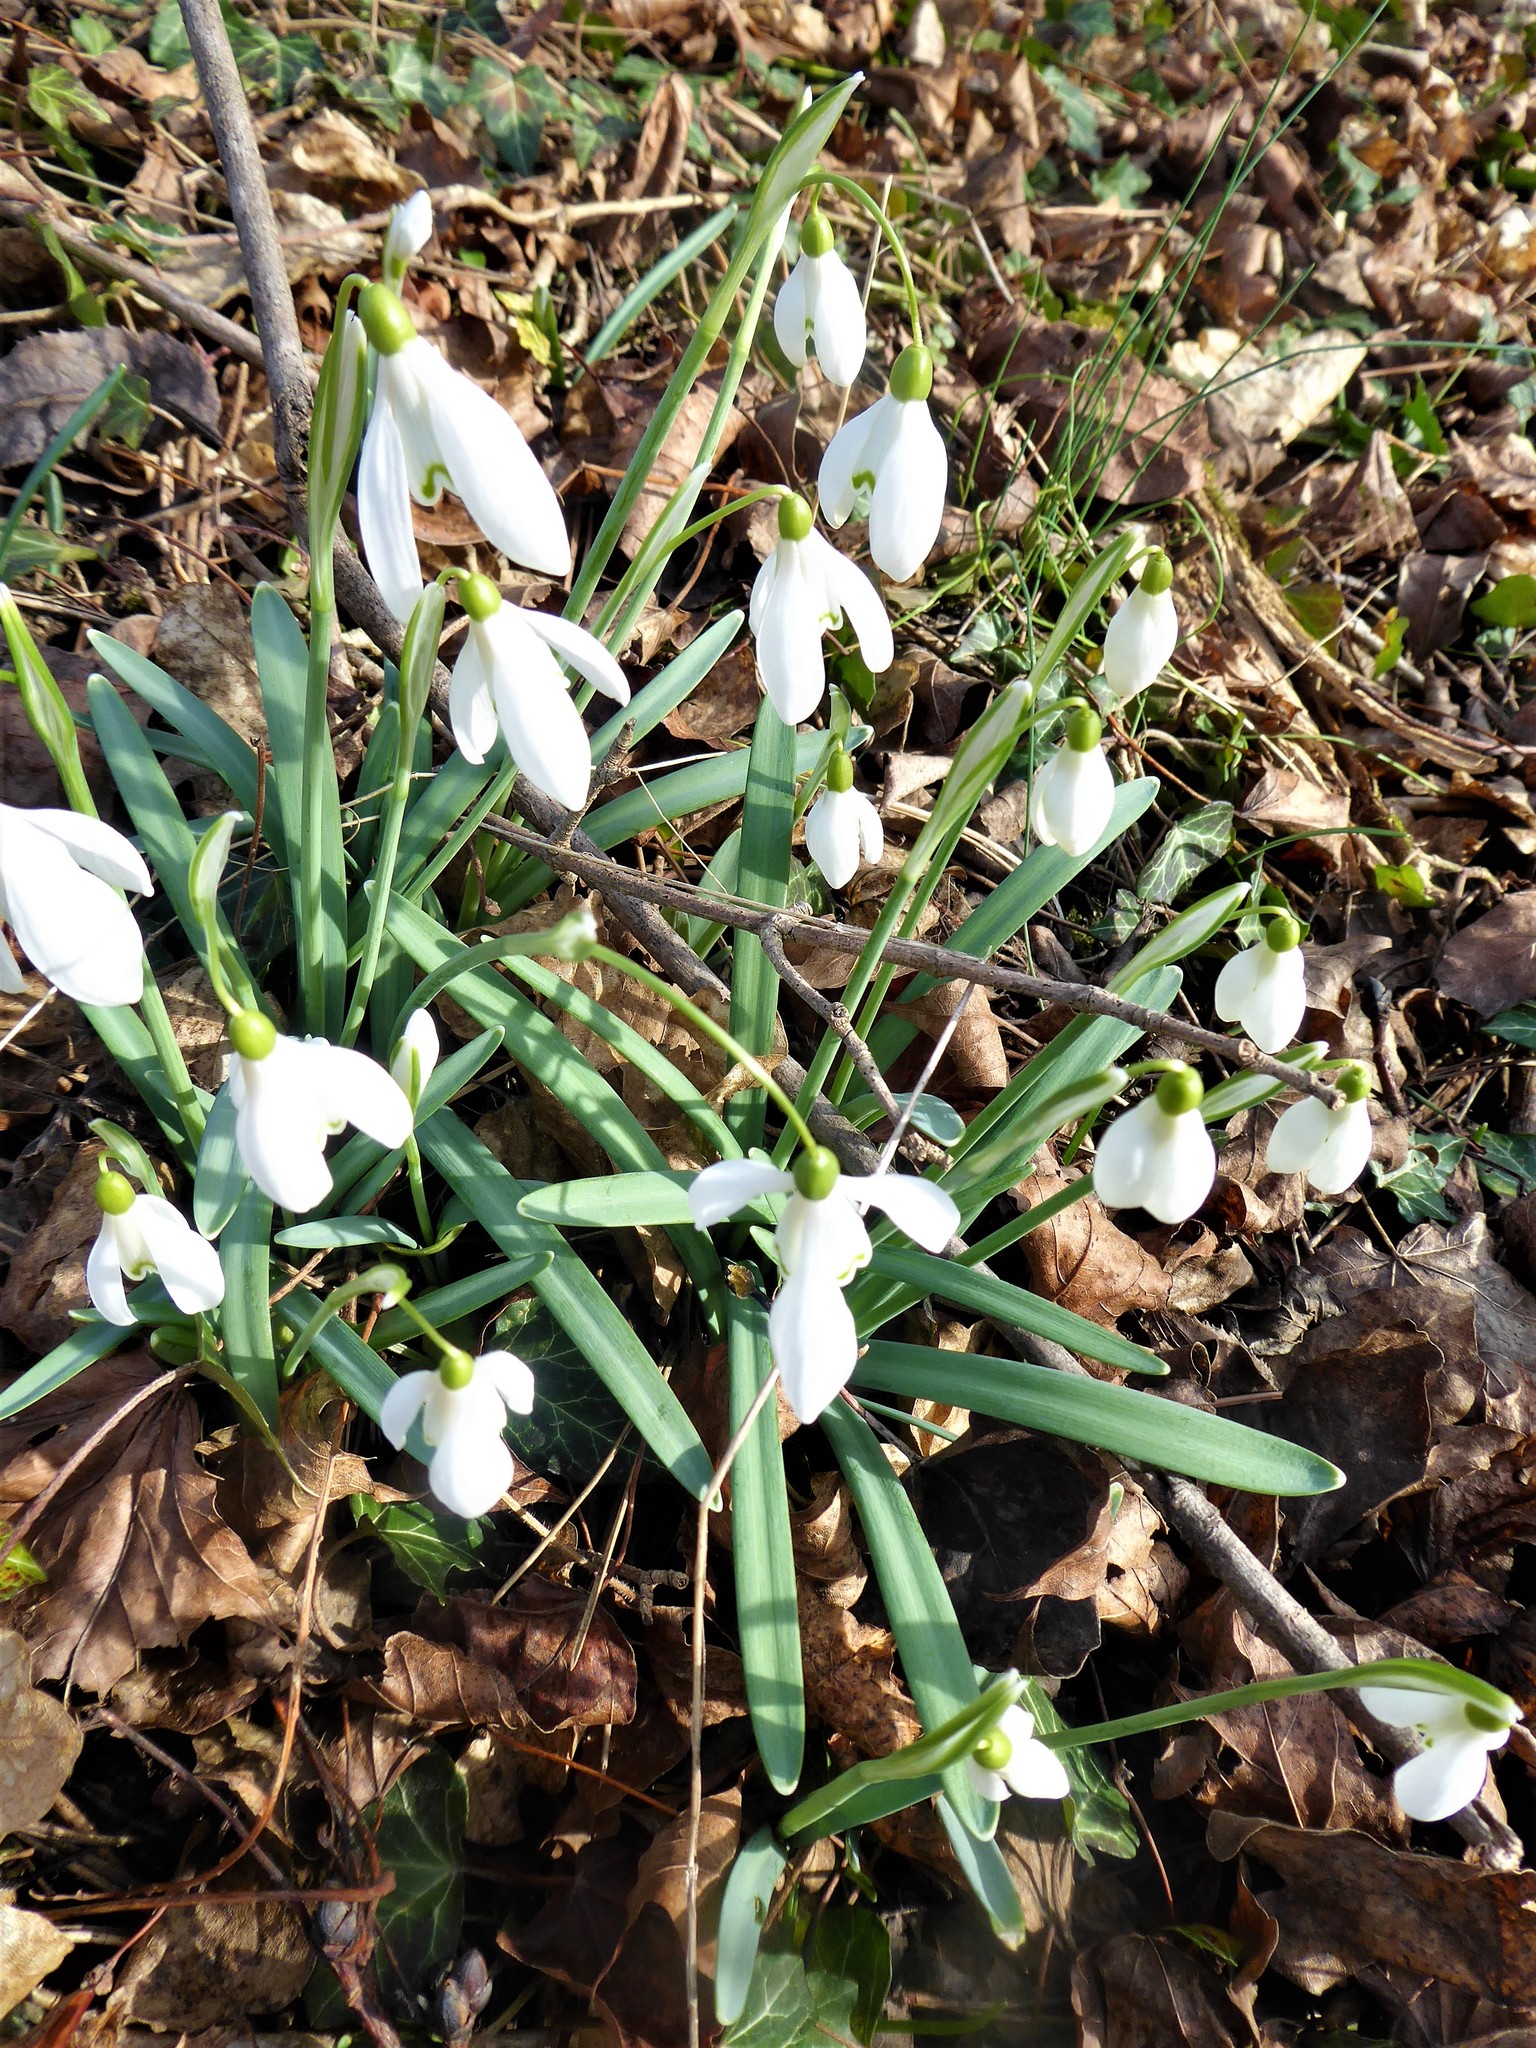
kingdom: Plantae
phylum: Tracheophyta
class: Liliopsida
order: Asparagales
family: Amaryllidaceae
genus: Galanthus
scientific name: Galanthus nivalis
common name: Snowdrop
